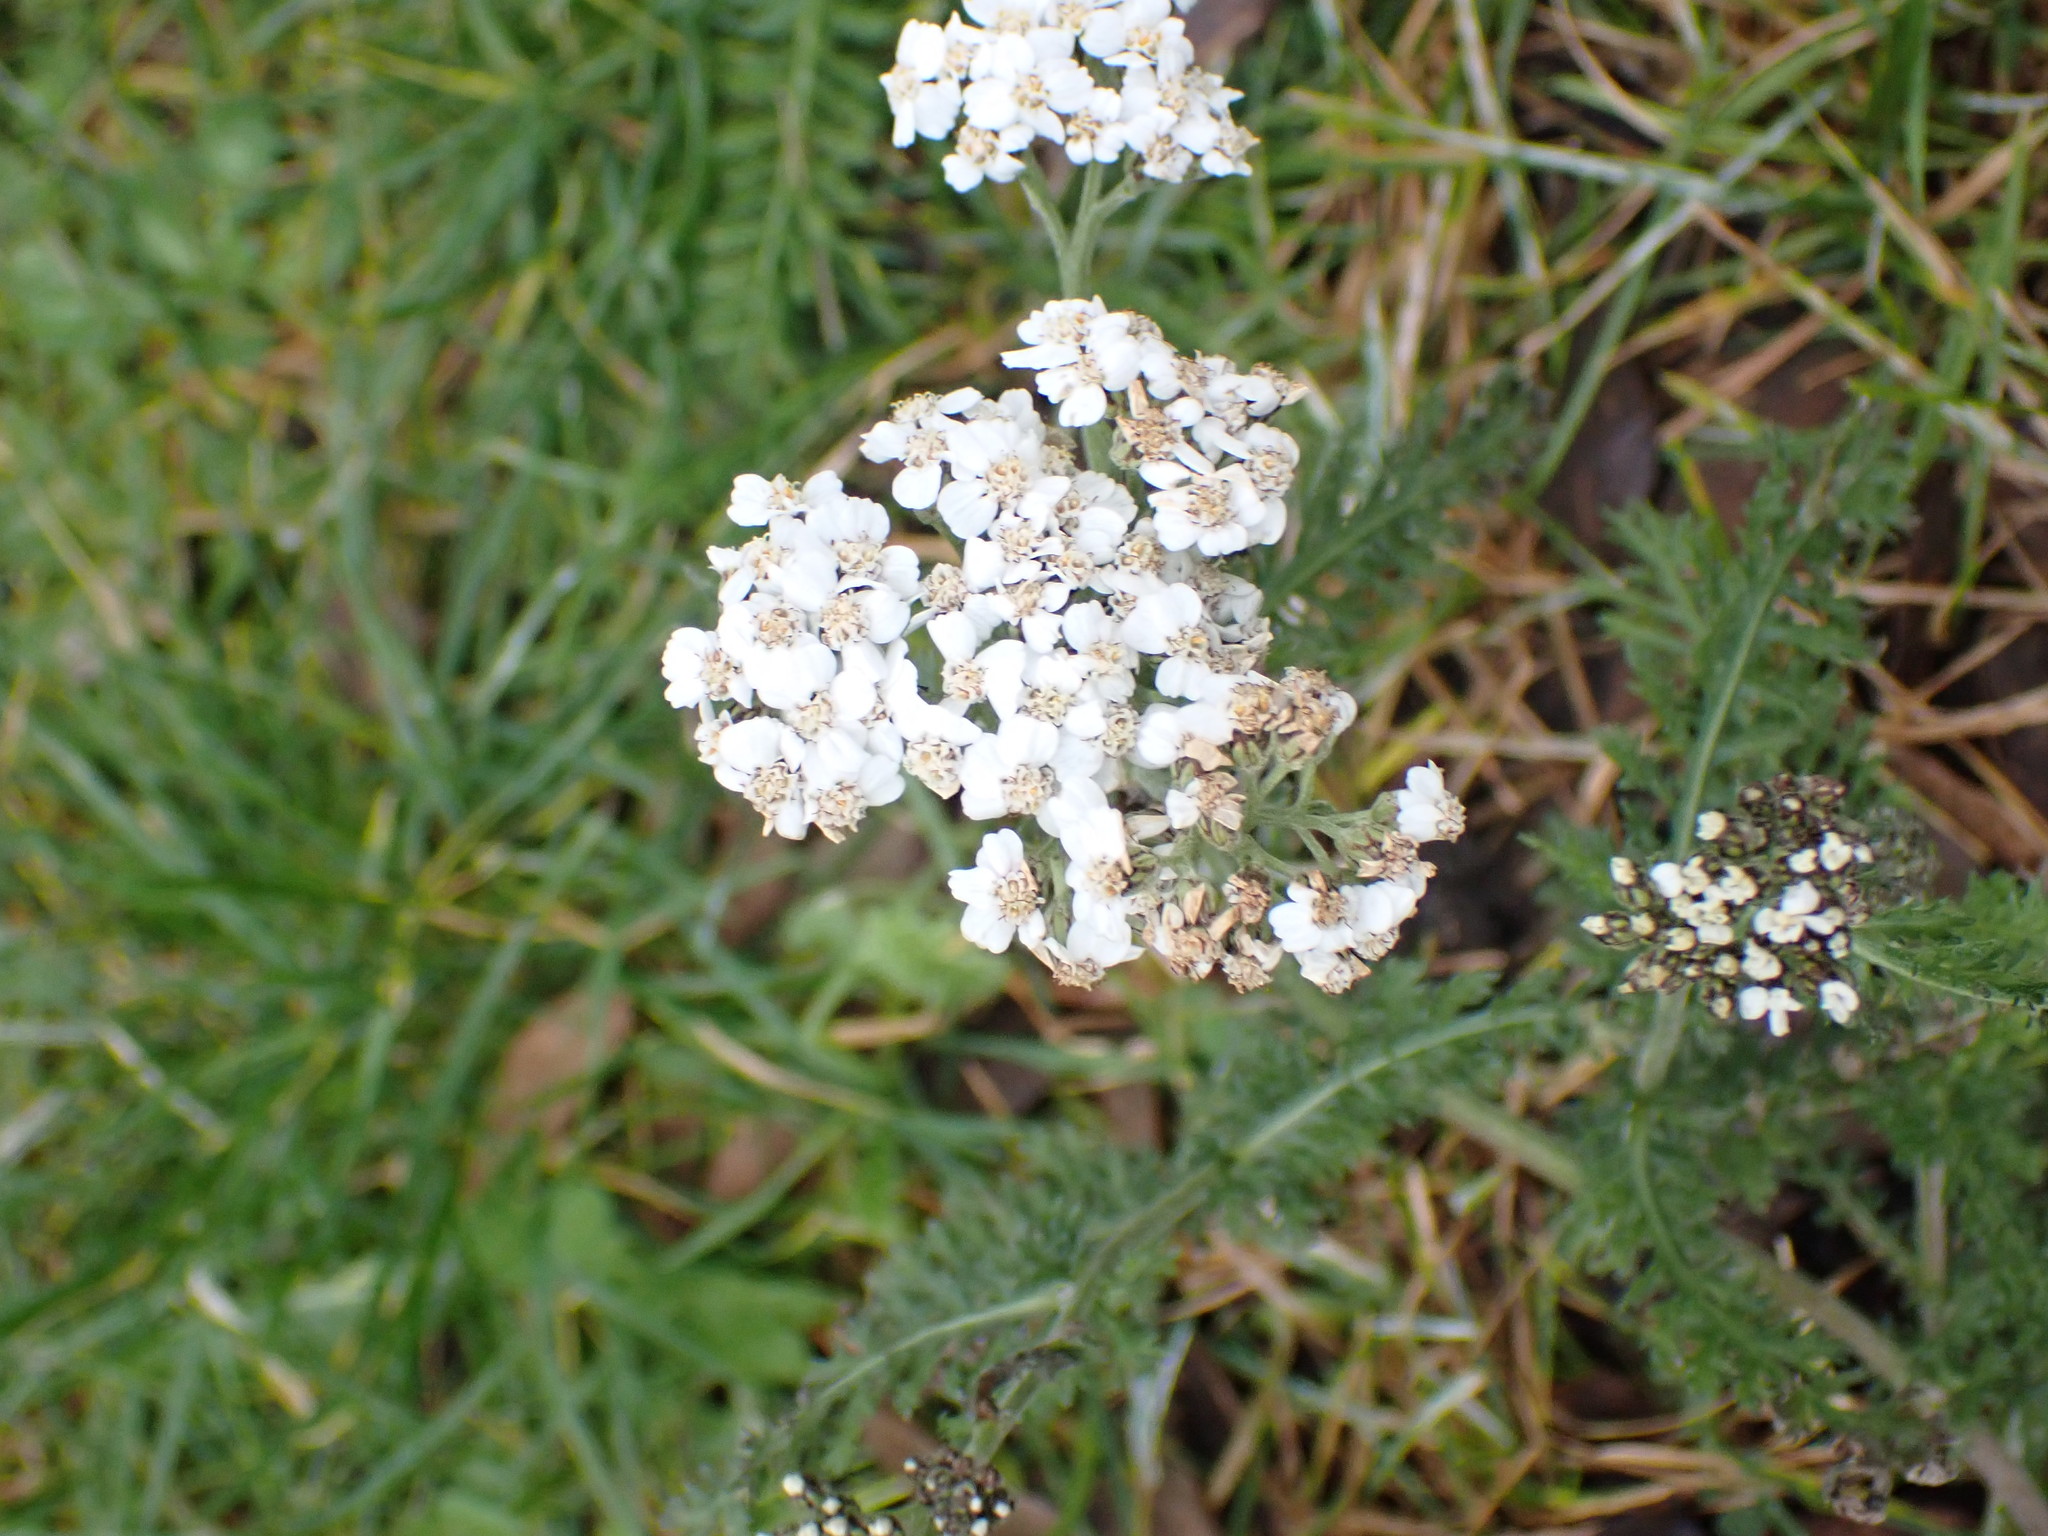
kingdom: Plantae
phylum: Tracheophyta
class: Magnoliopsida
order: Asterales
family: Asteraceae
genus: Achillea
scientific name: Achillea millefolium
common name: Yarrow
